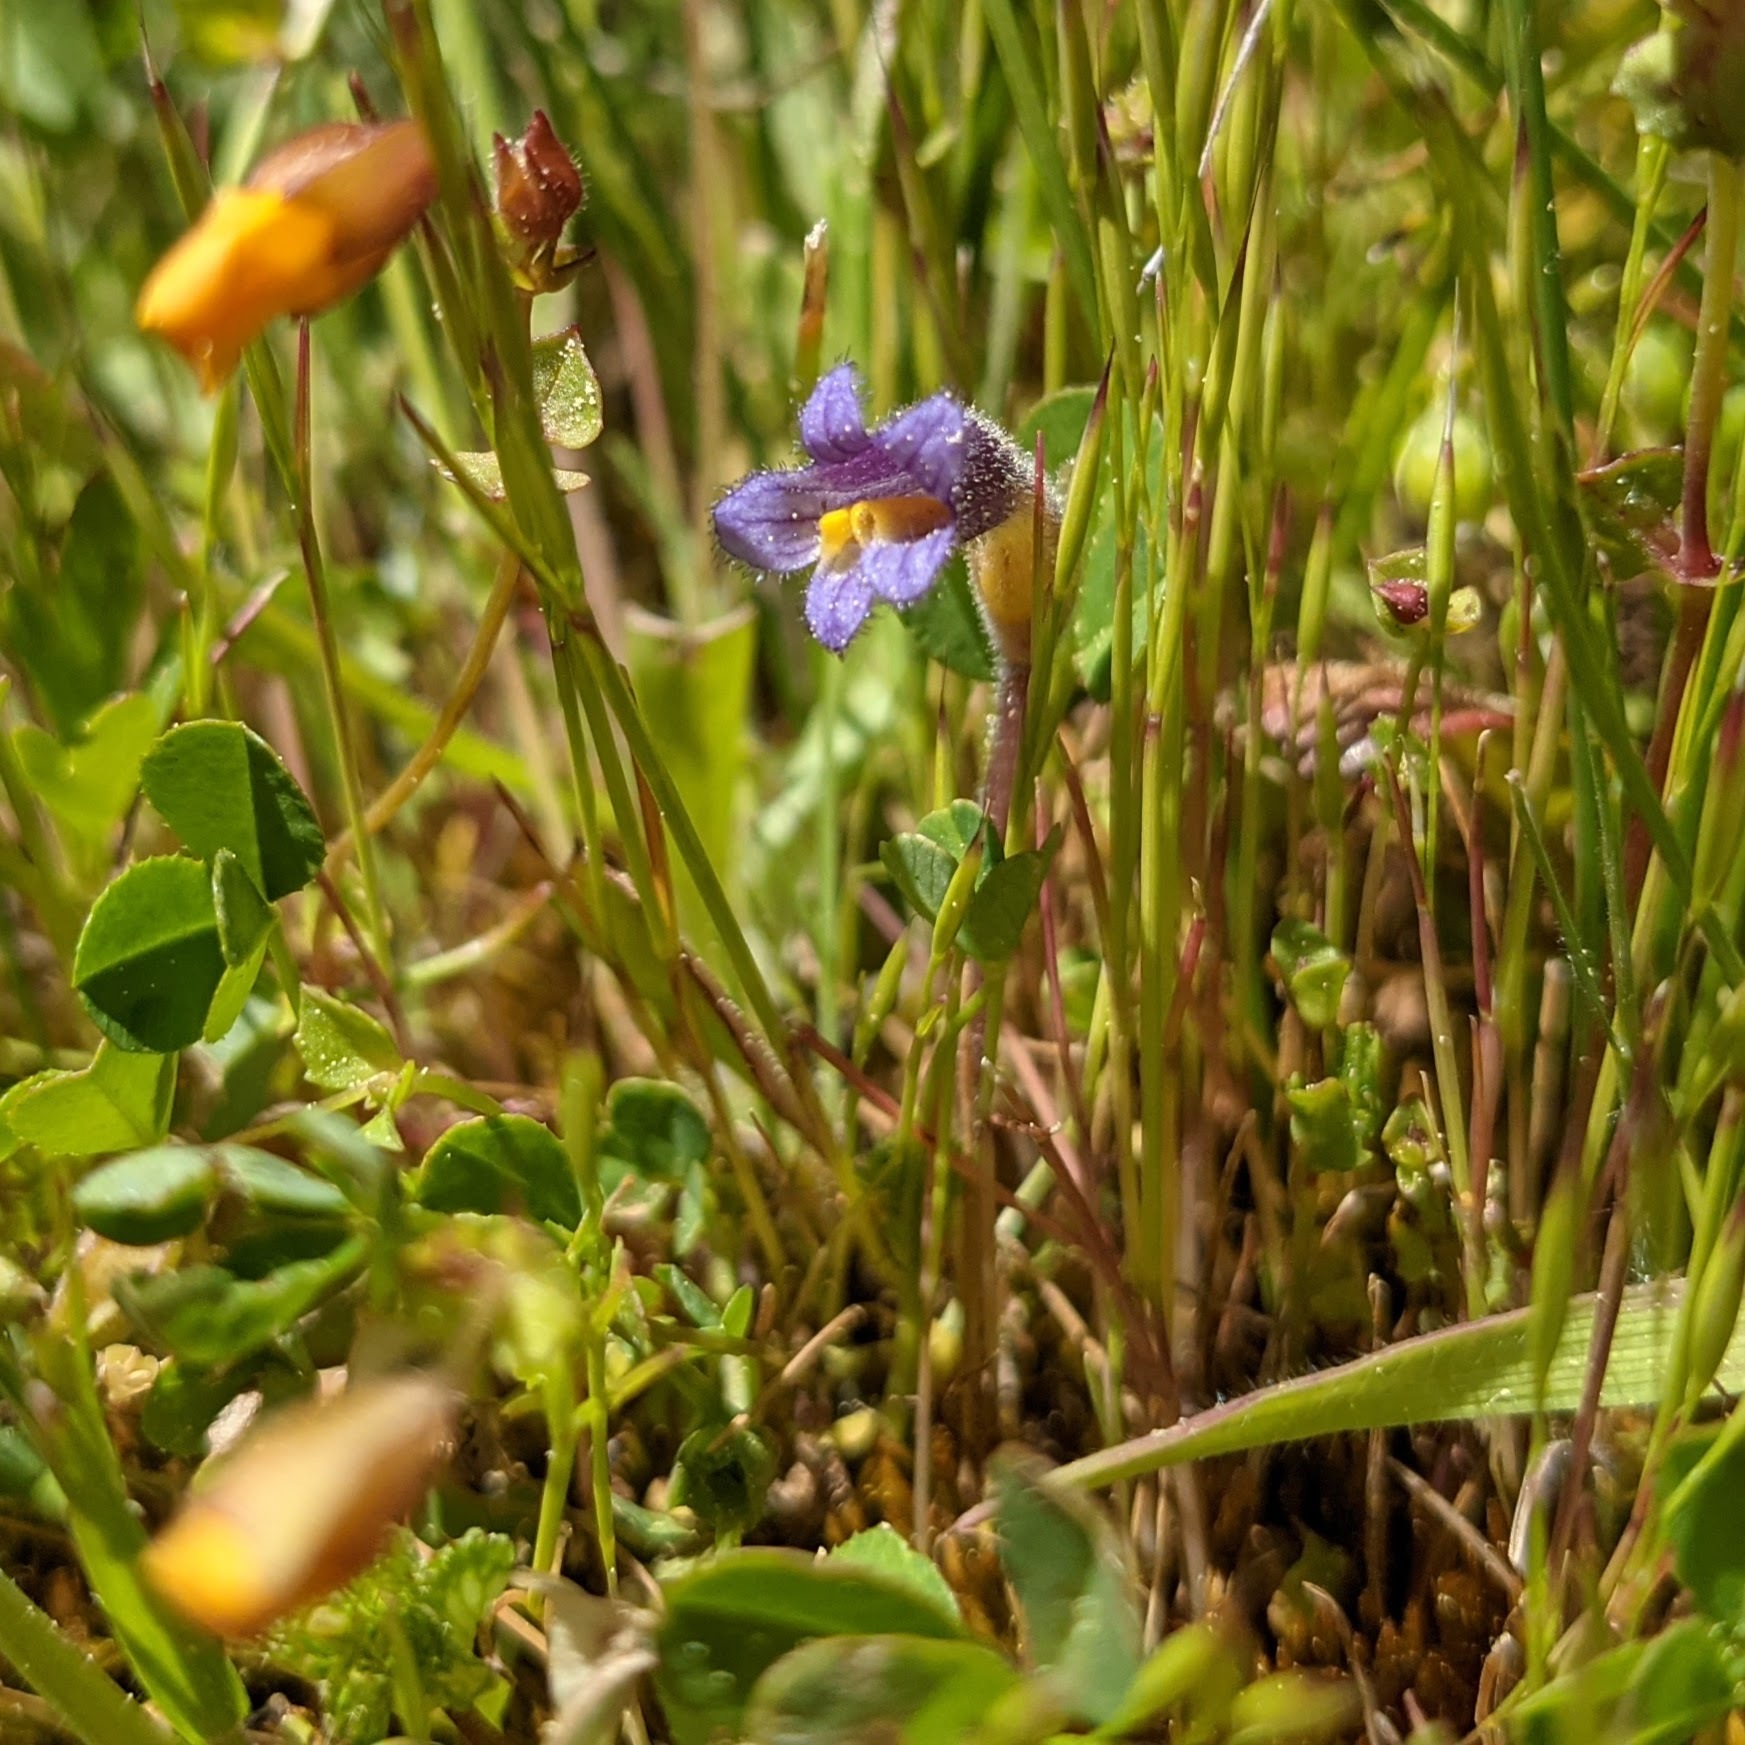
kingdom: Plantae
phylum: Tracheophyta
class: Magnoliopsida
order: Lamiales
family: Orobanchaceae
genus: Aphyllon
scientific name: Aphyllon uniflorum
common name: One-flowered broomrape
